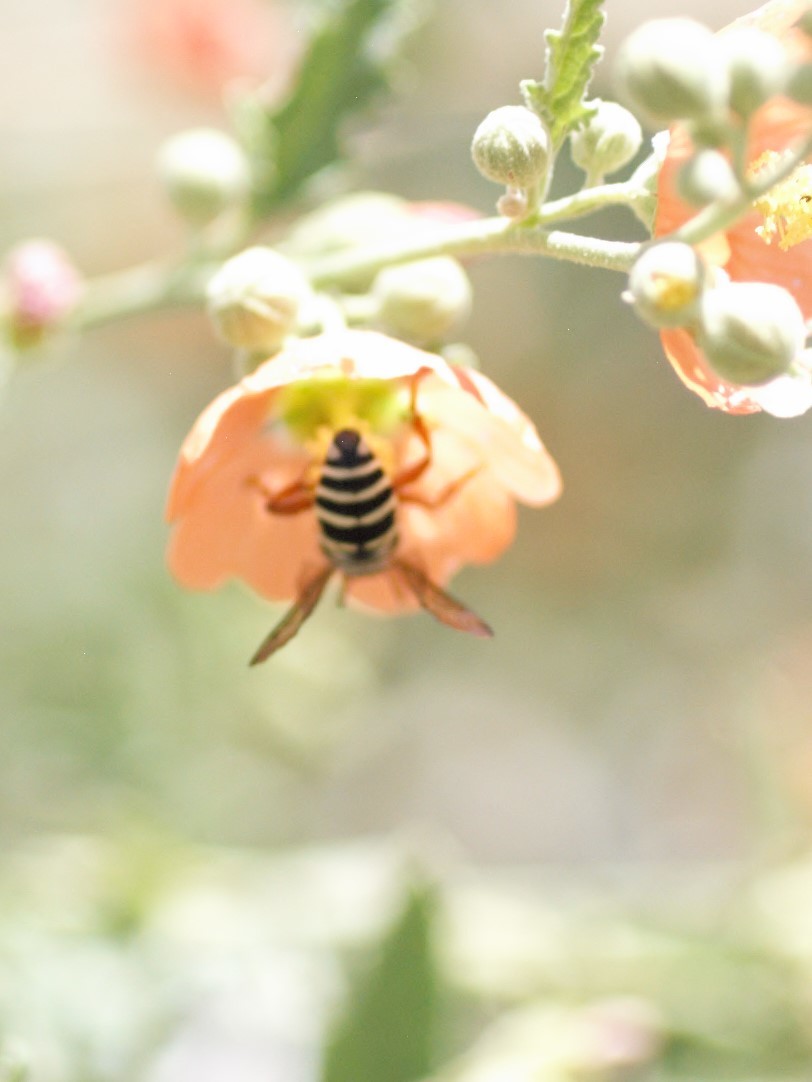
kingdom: Animalia
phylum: Arthropoda
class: Insecta
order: Hymenoptera
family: Apidae
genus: Triepeolus
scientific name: Triepeolus
